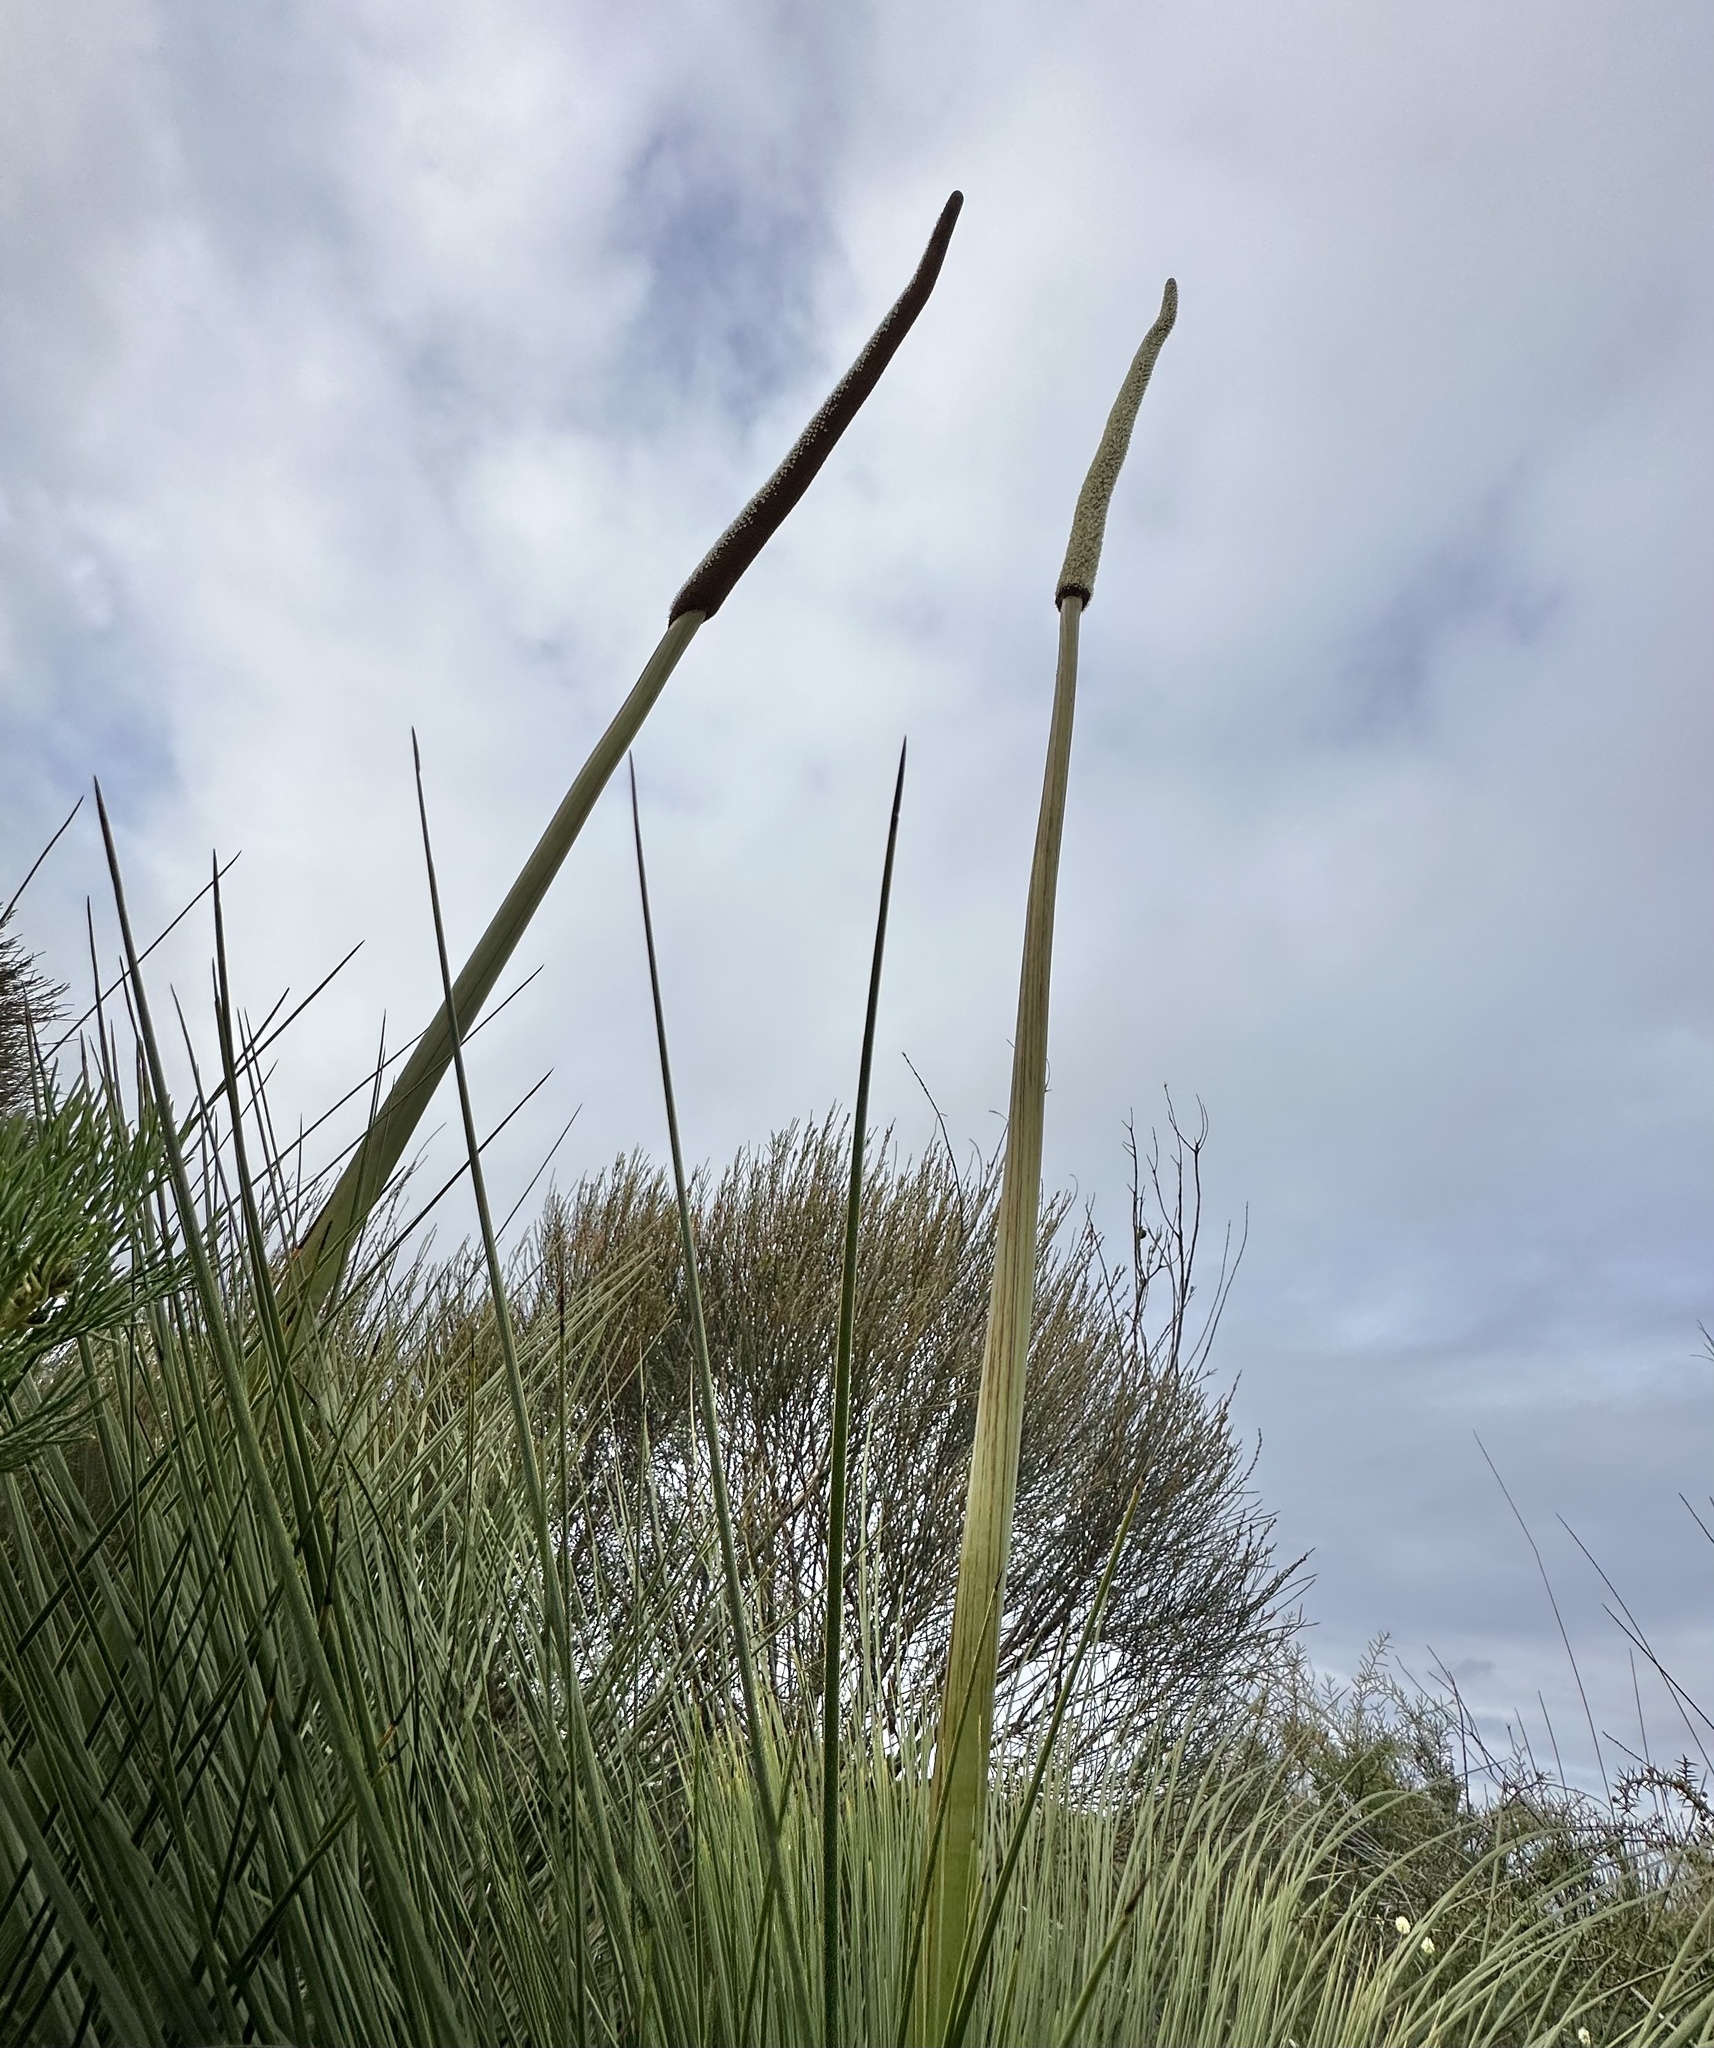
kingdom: Plantae
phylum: Tracheophyta
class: Liliopsida
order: Asparagales
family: Asphodelaceae
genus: Xanthorrhoea
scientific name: Xanthorrhoea resinosa
